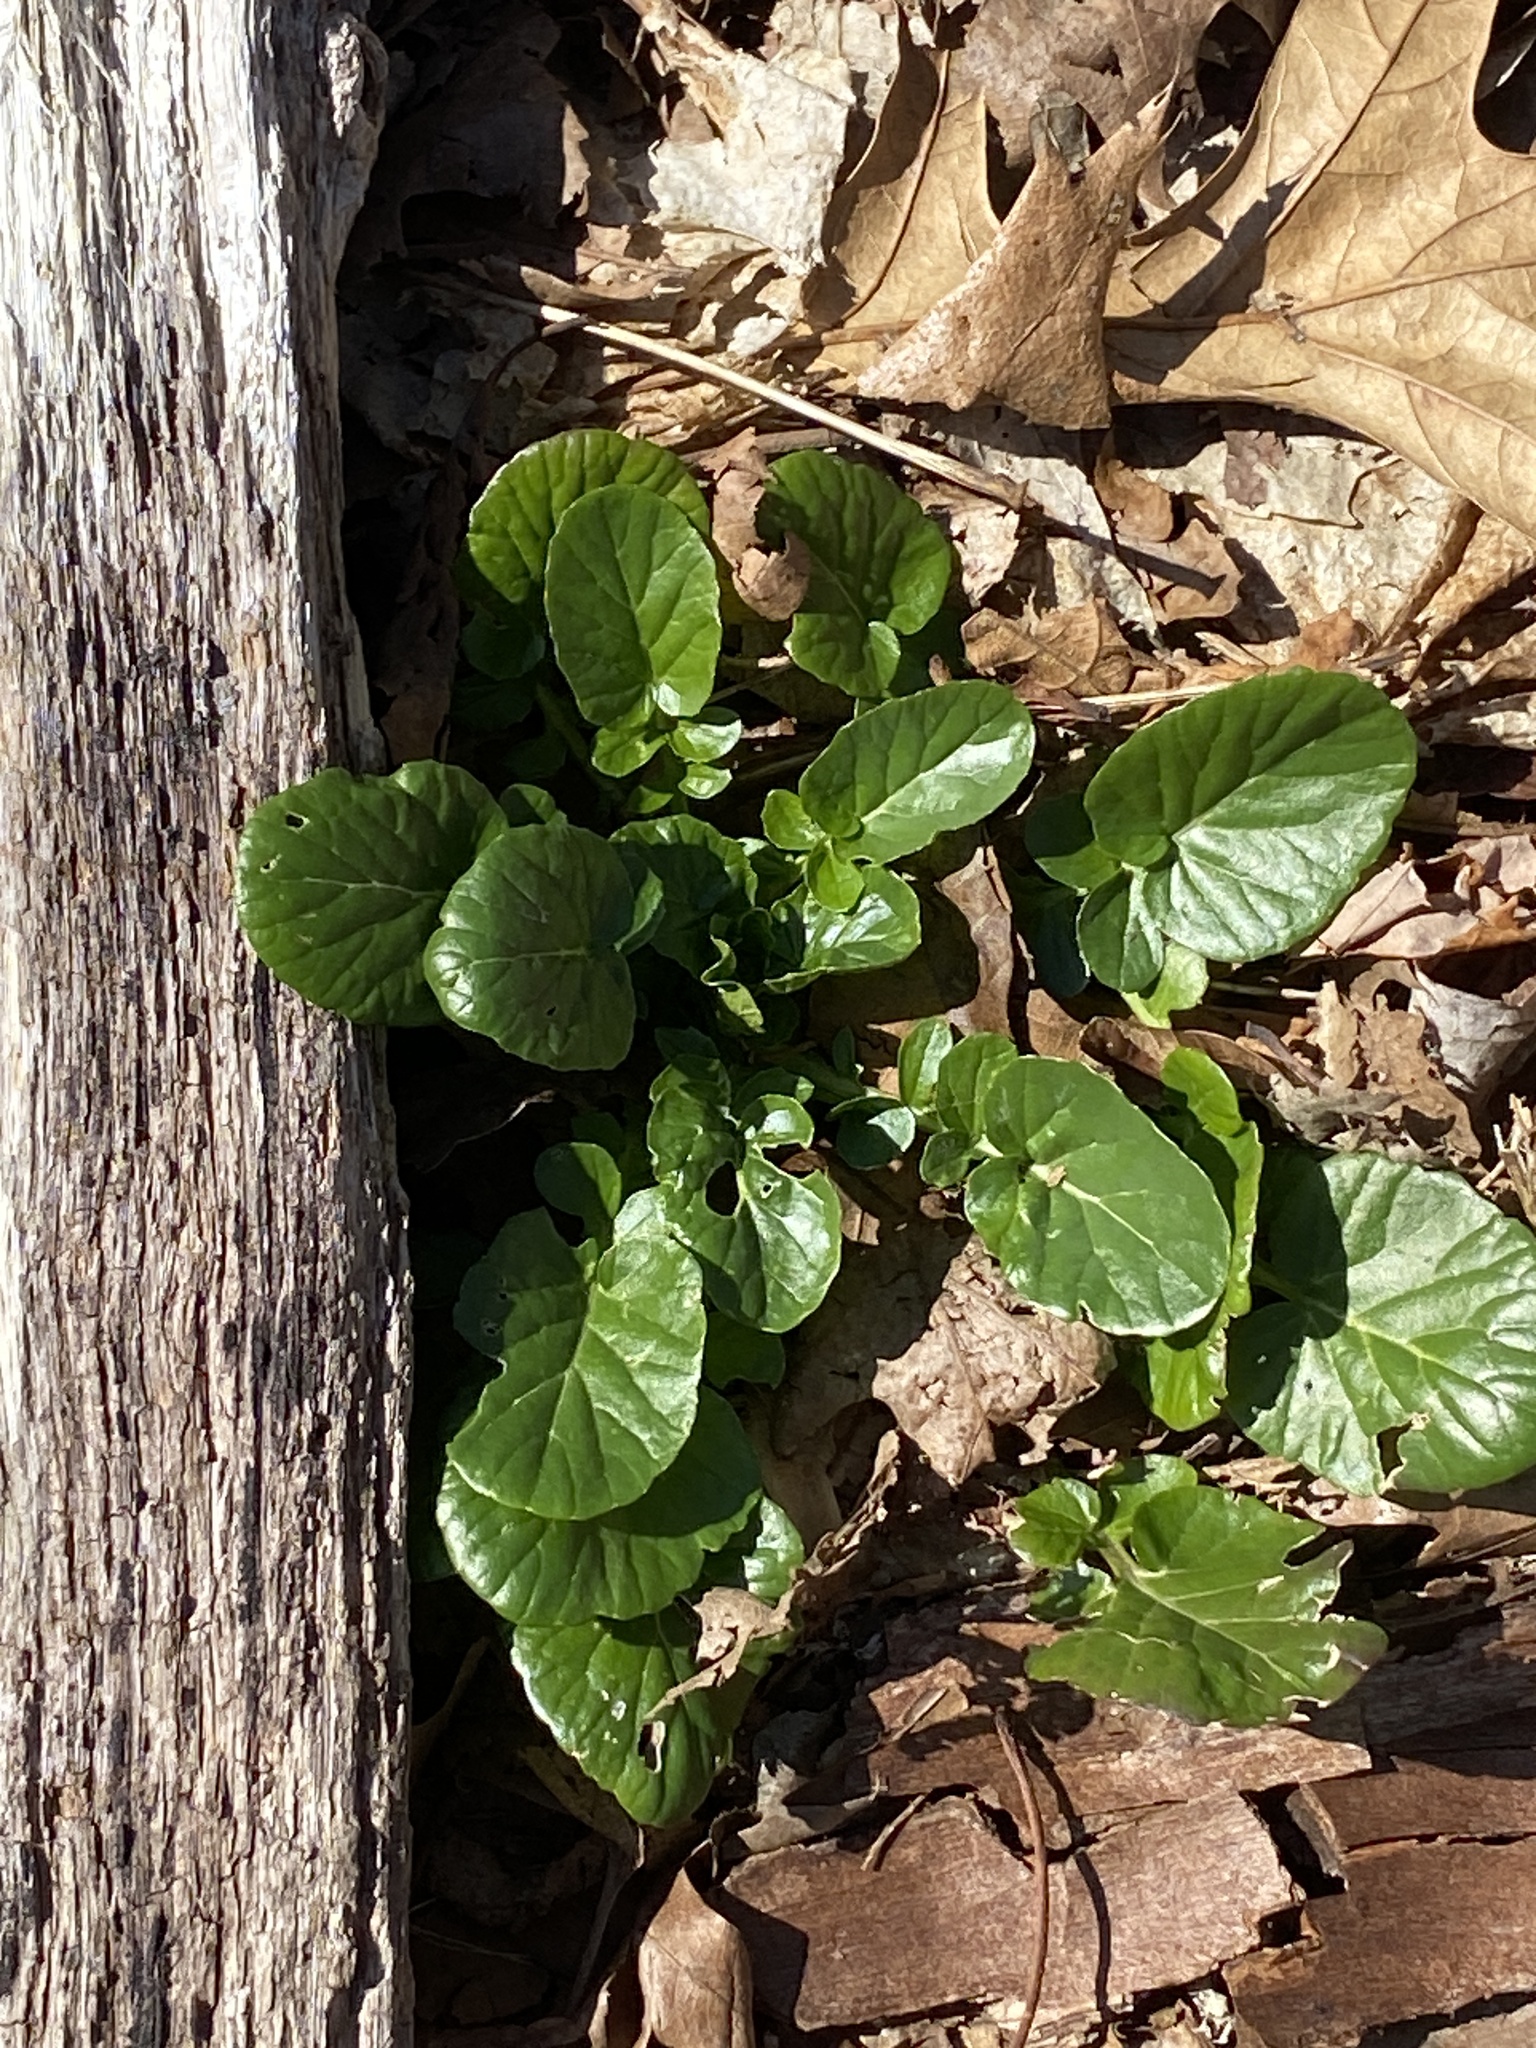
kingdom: Plantae
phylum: Tracheophyta
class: Magnoliopsida
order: Brassicales
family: Brassicaceae
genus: Barbarea
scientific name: Barbarea vulgaris
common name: Cressy-greens
